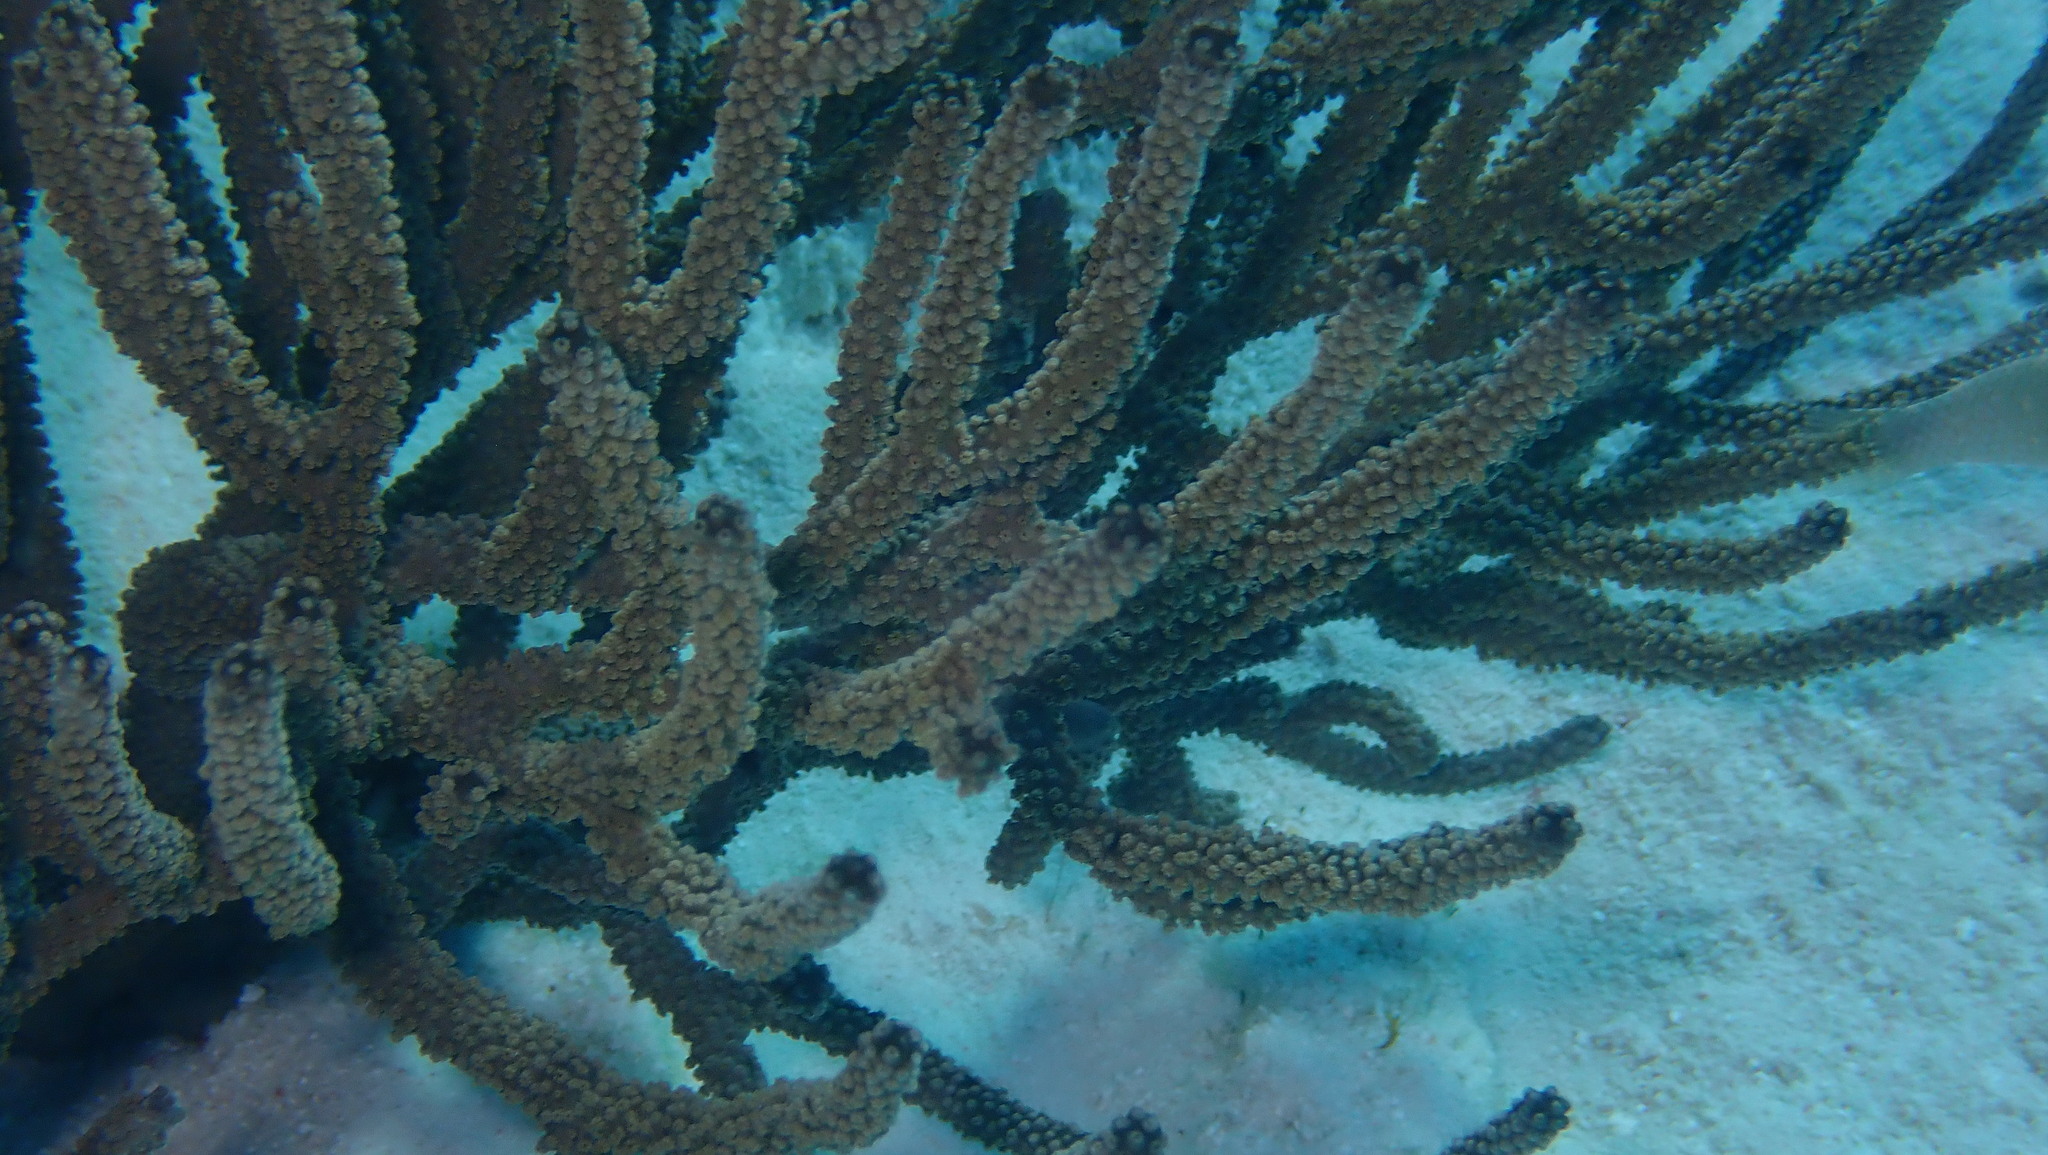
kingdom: Animalia
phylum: Cnidaria
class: Anthozoa
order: Malacalcyonacea
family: Plexauridae
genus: Plexaura
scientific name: Plexaura homomalla
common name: Black sea rod
